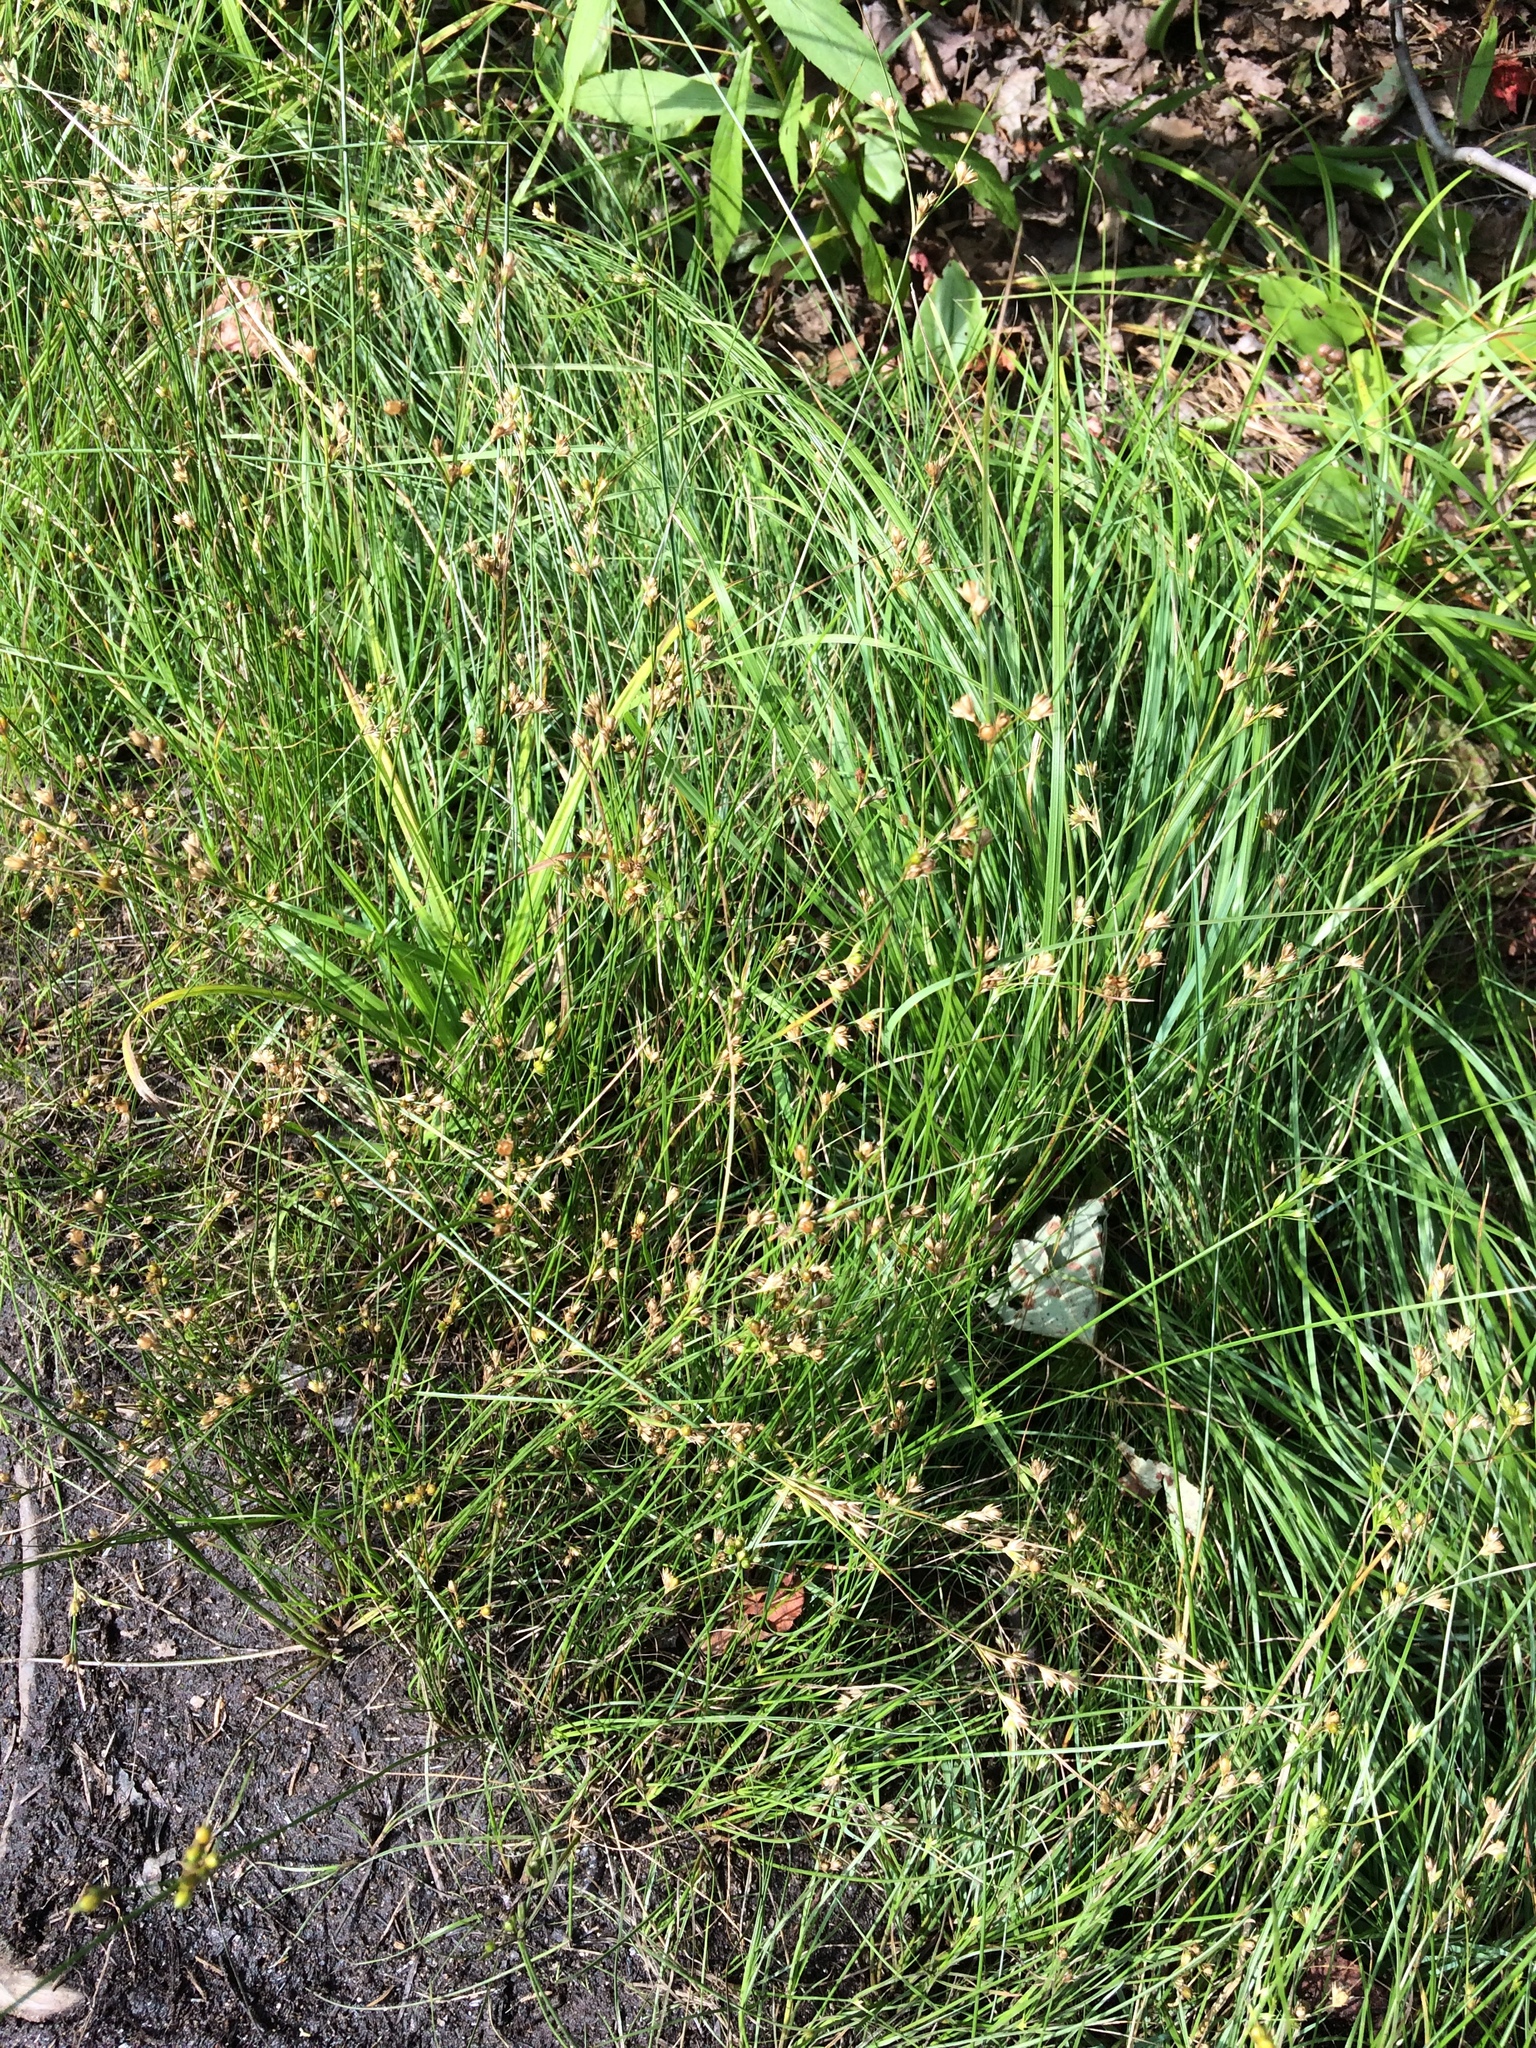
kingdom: Plantae
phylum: Tracheophyta
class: Liliopsida
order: Poales
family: Juncaceae
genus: Juncus
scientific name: Juncus tenuis
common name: Slender rush
